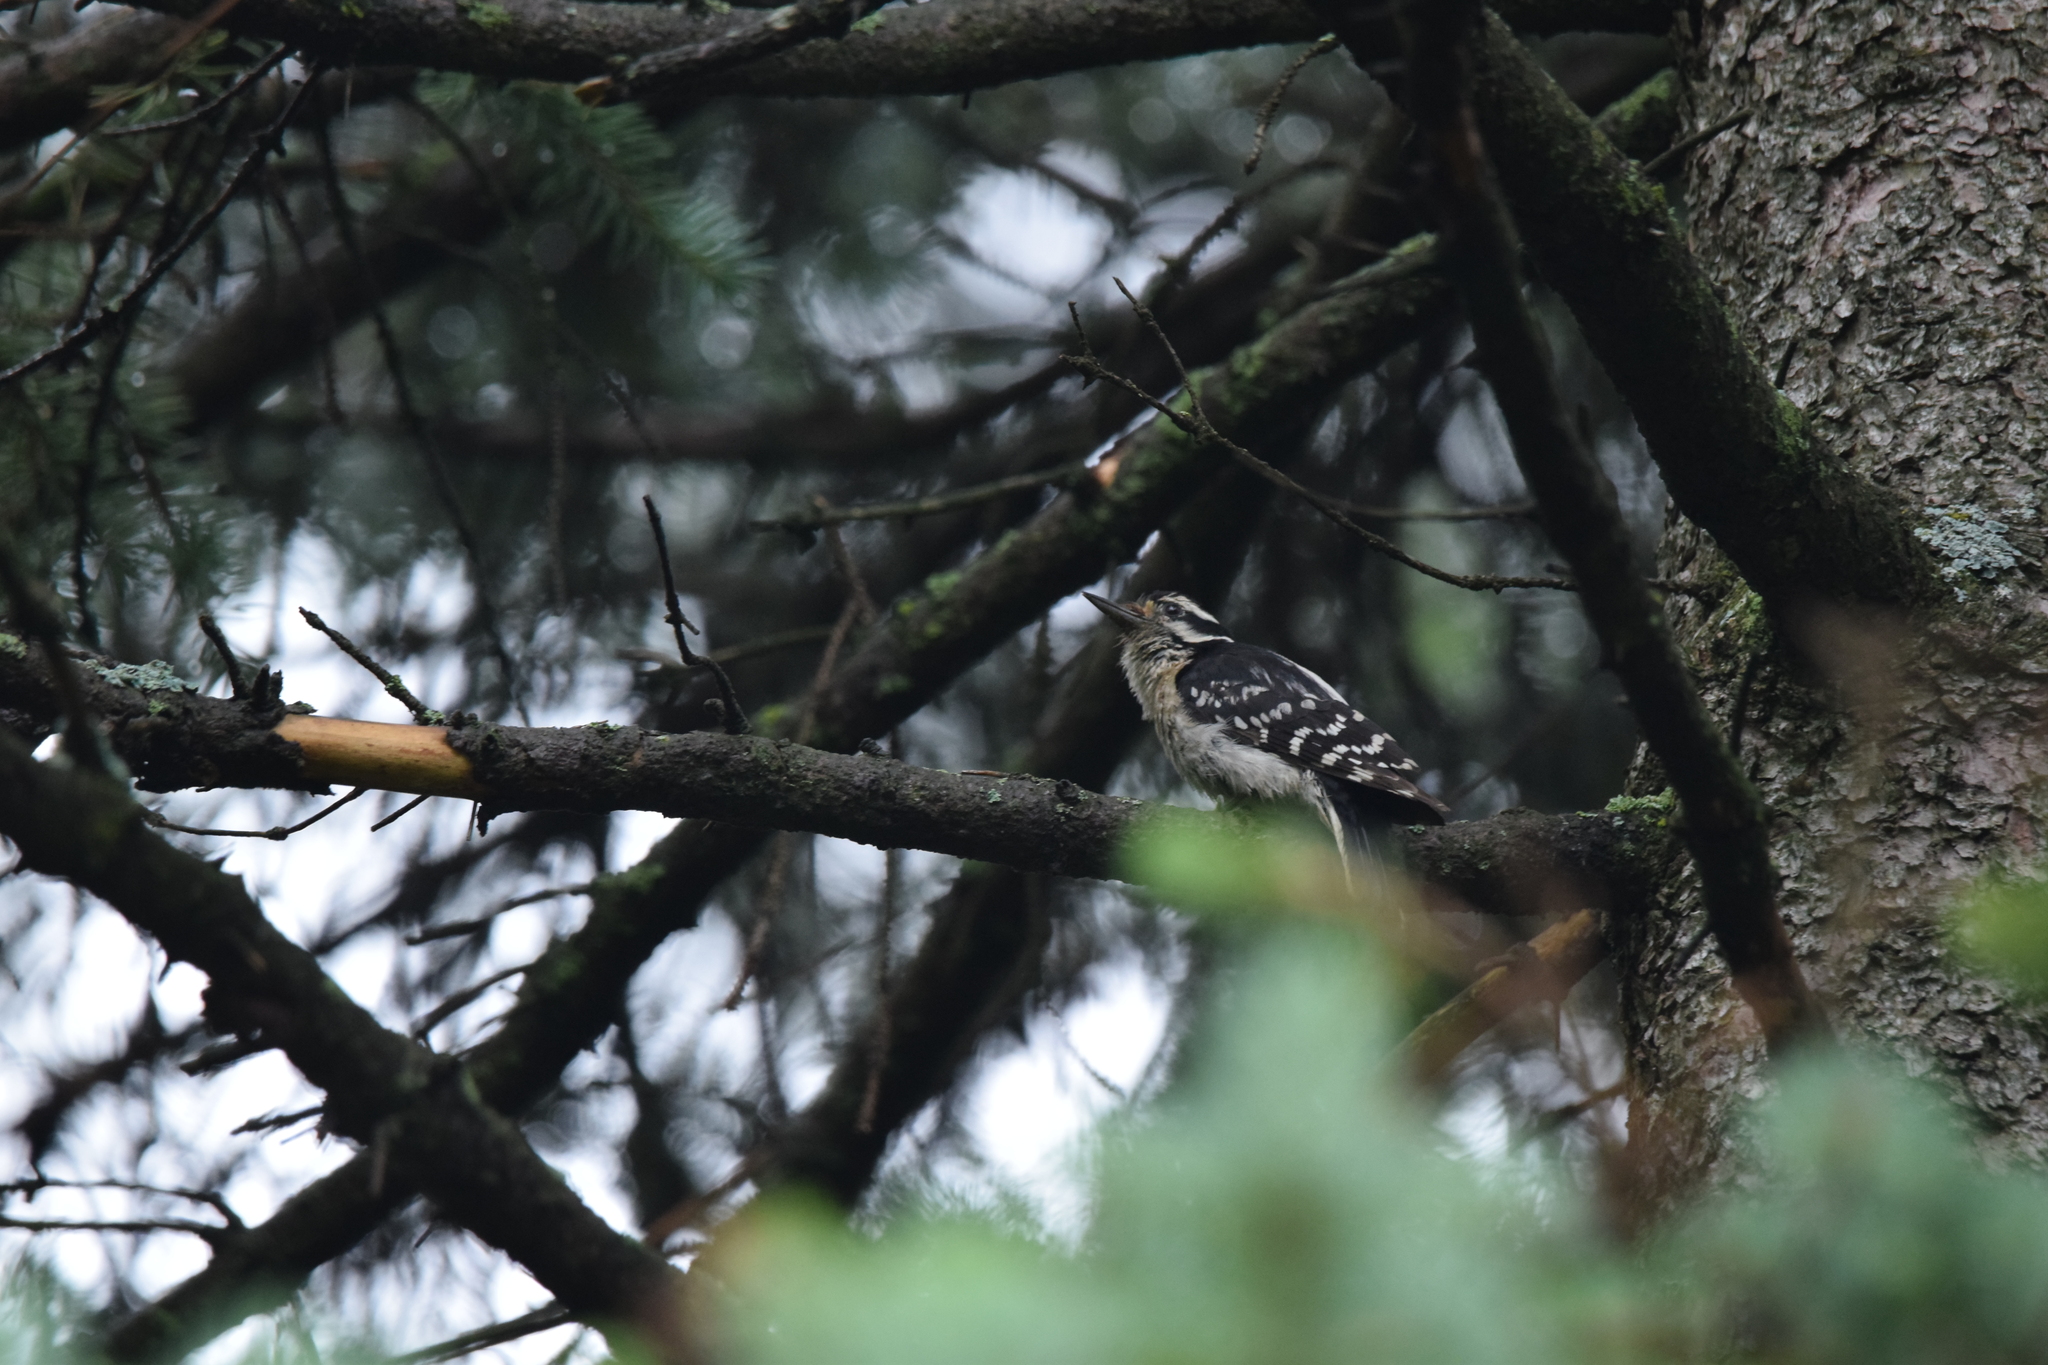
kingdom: Animalia
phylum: Chordata
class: Aves
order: Piciformes
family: Picidae
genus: Leuconotopicus
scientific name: Leuconotopicus villosus
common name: Hairy woodpecker
